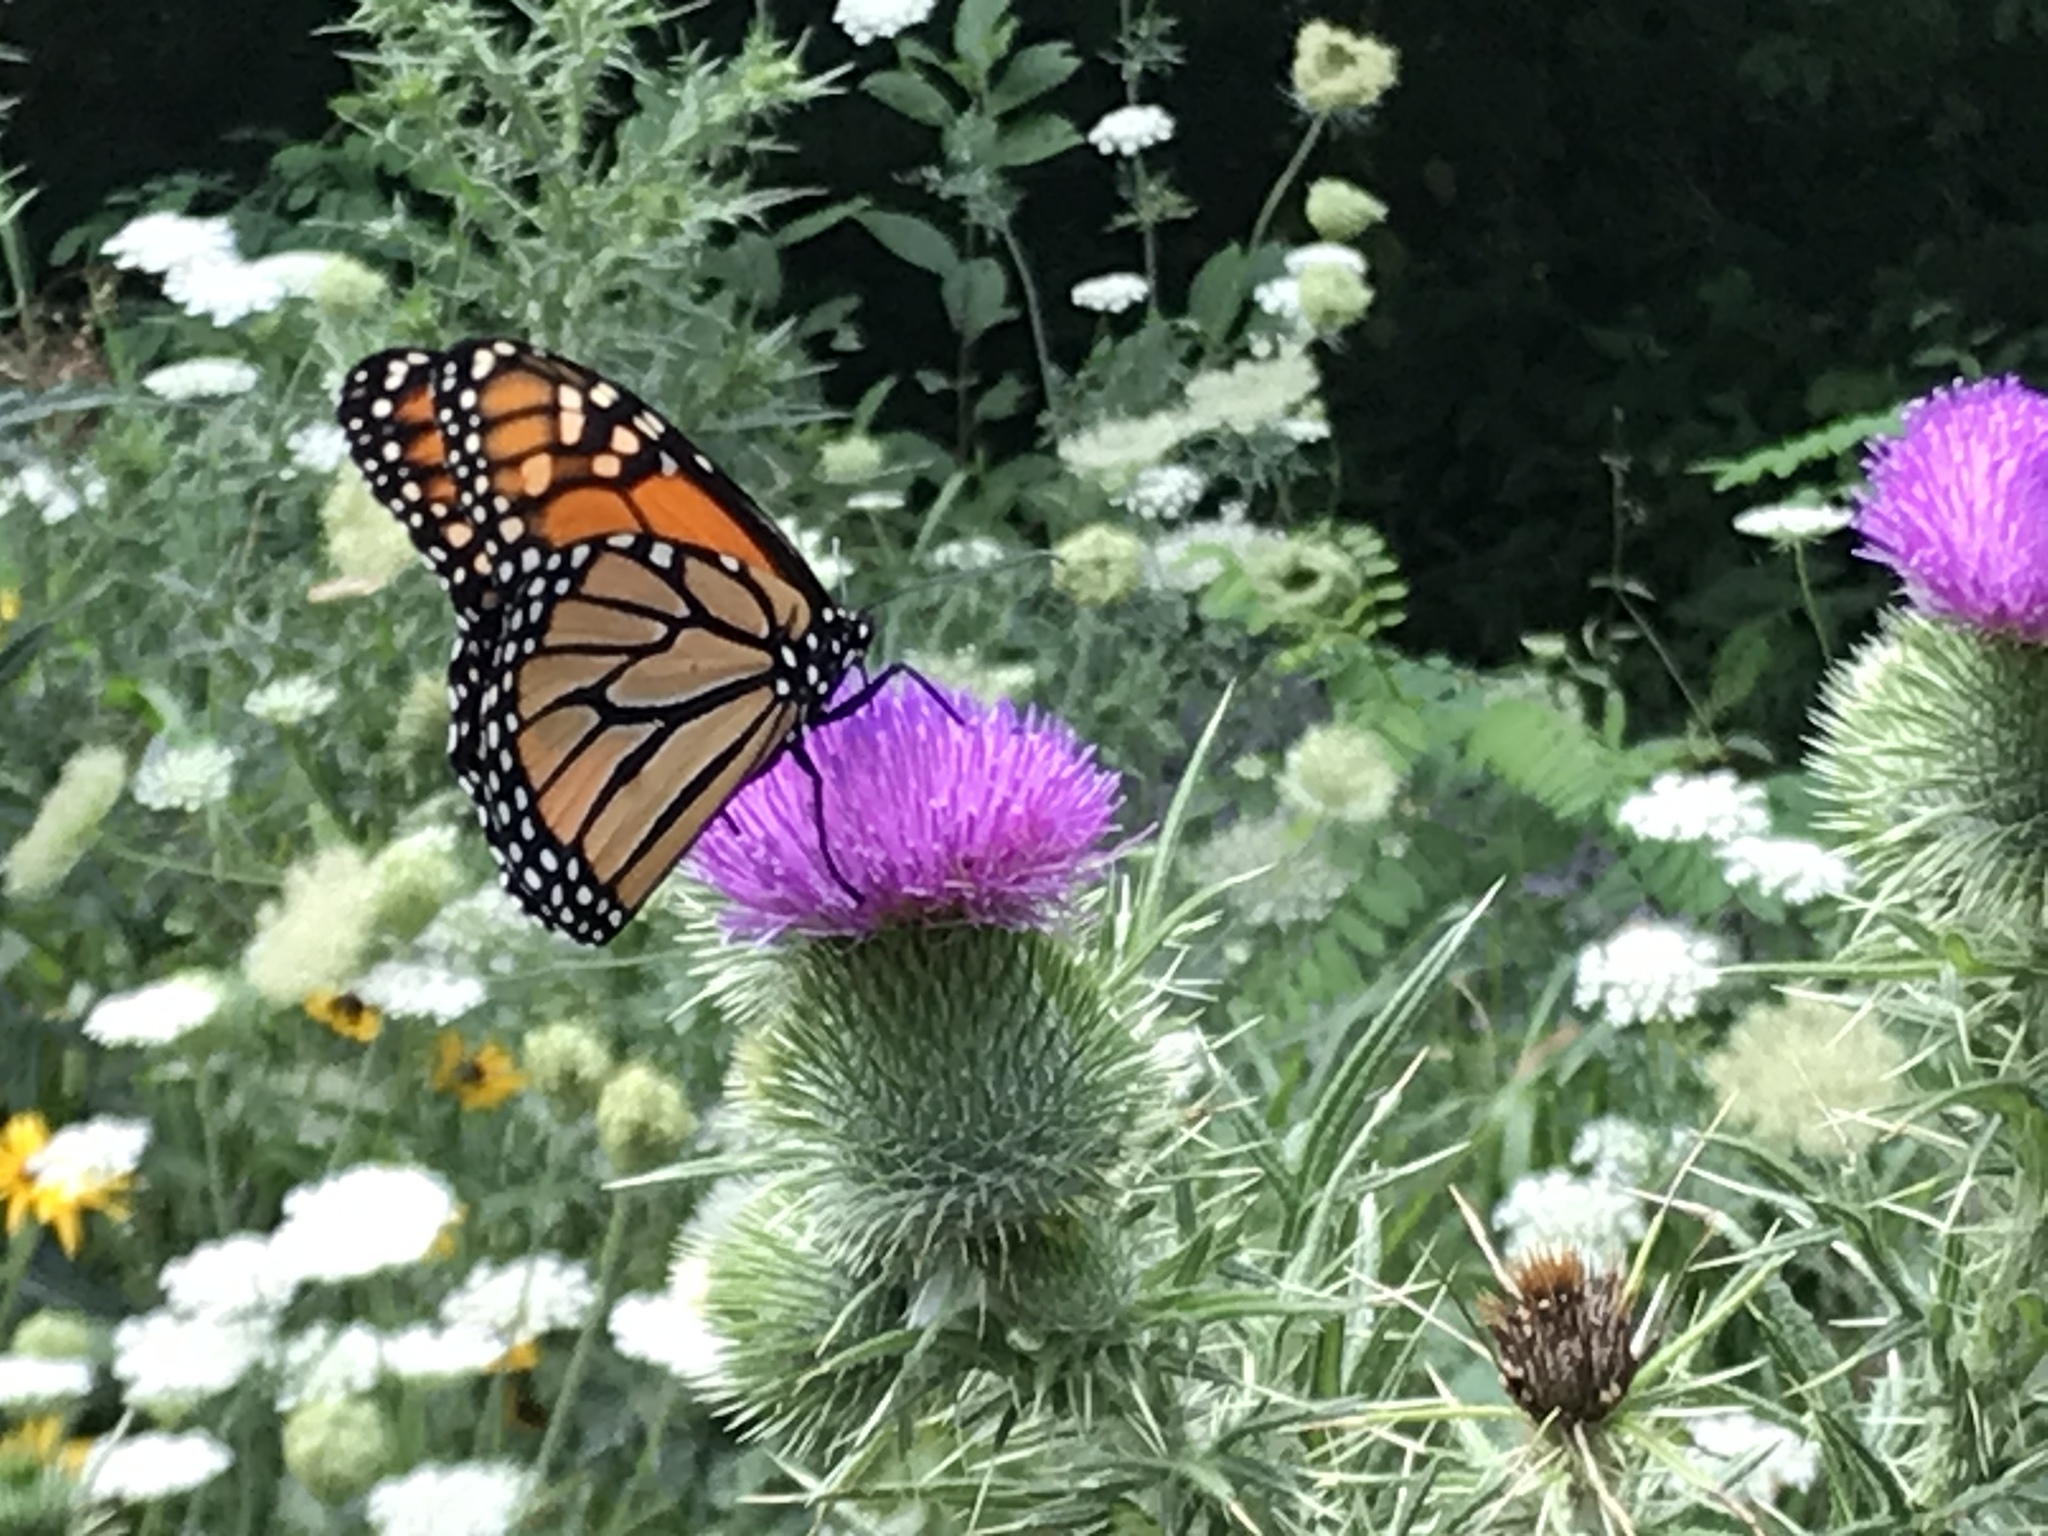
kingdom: Animalia
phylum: Arthropoda
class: Insecta
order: Lepidoptera
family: Nymphalidae
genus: Danaus
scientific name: Danaus plexippus
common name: Monarch
